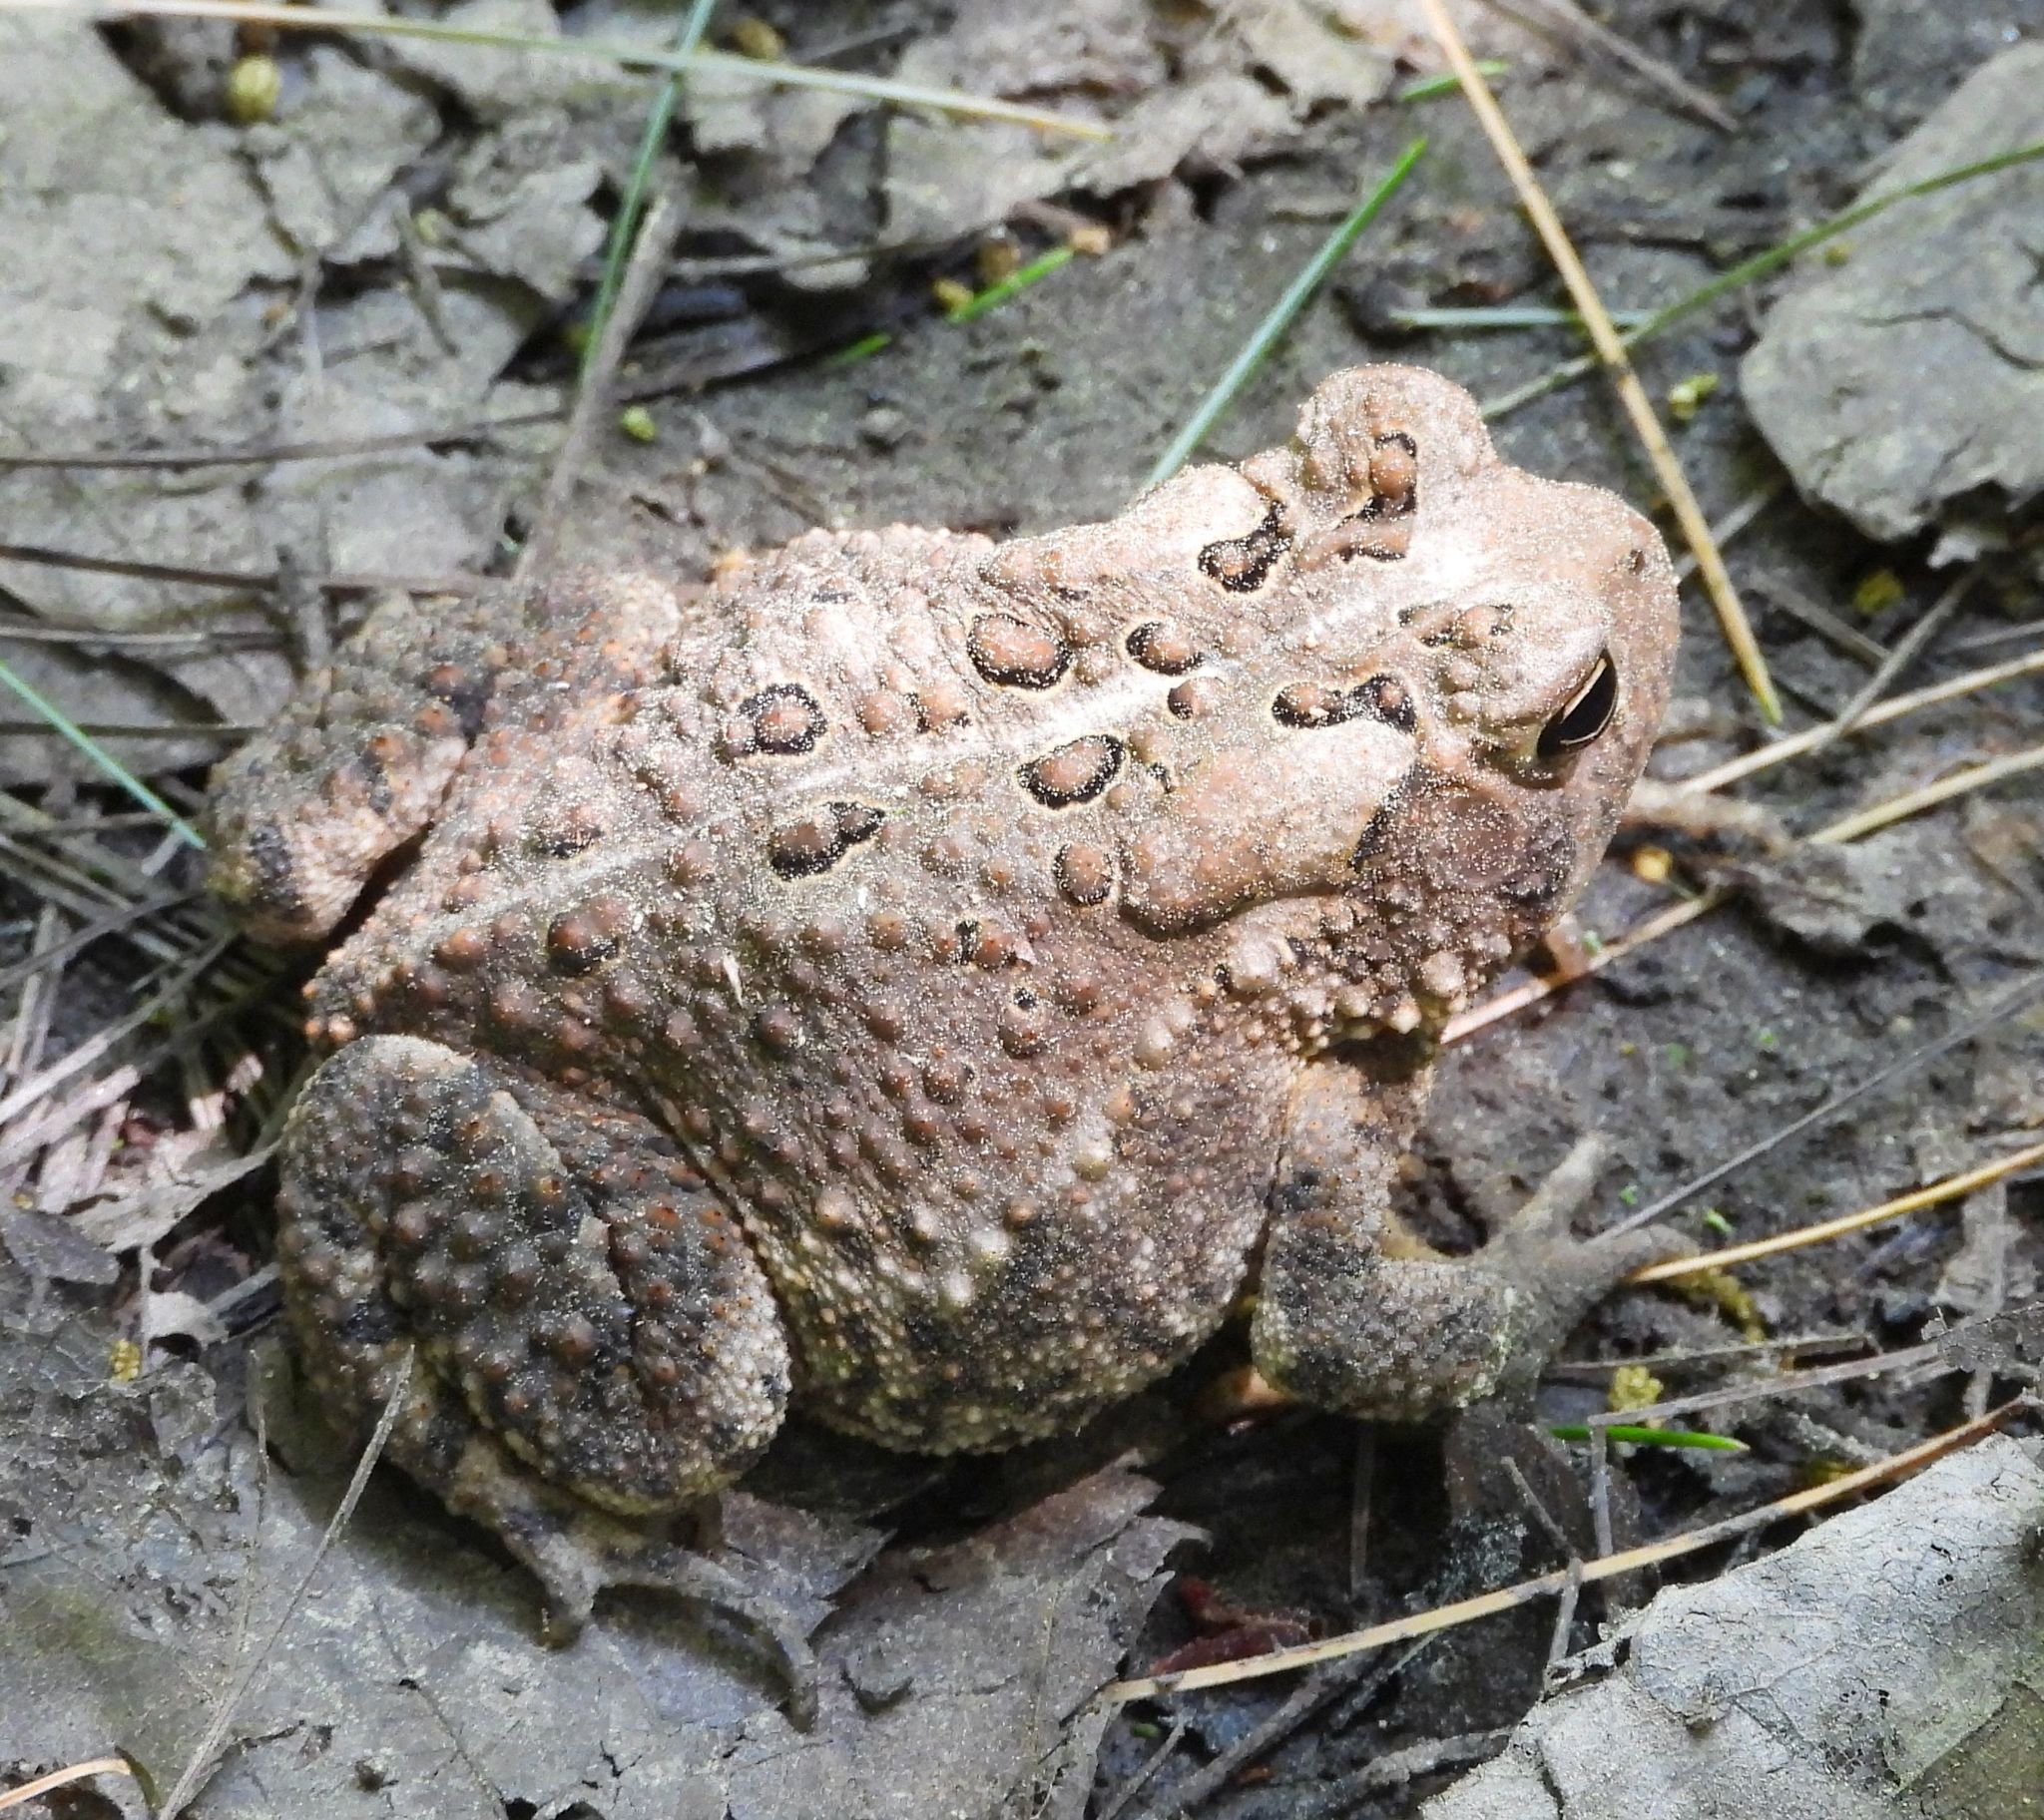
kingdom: Animalia
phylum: Chordata
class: Amphibia
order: Anura
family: Bufonidae
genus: Anaxyrus
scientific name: Anaxyrus americanus
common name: American toad
